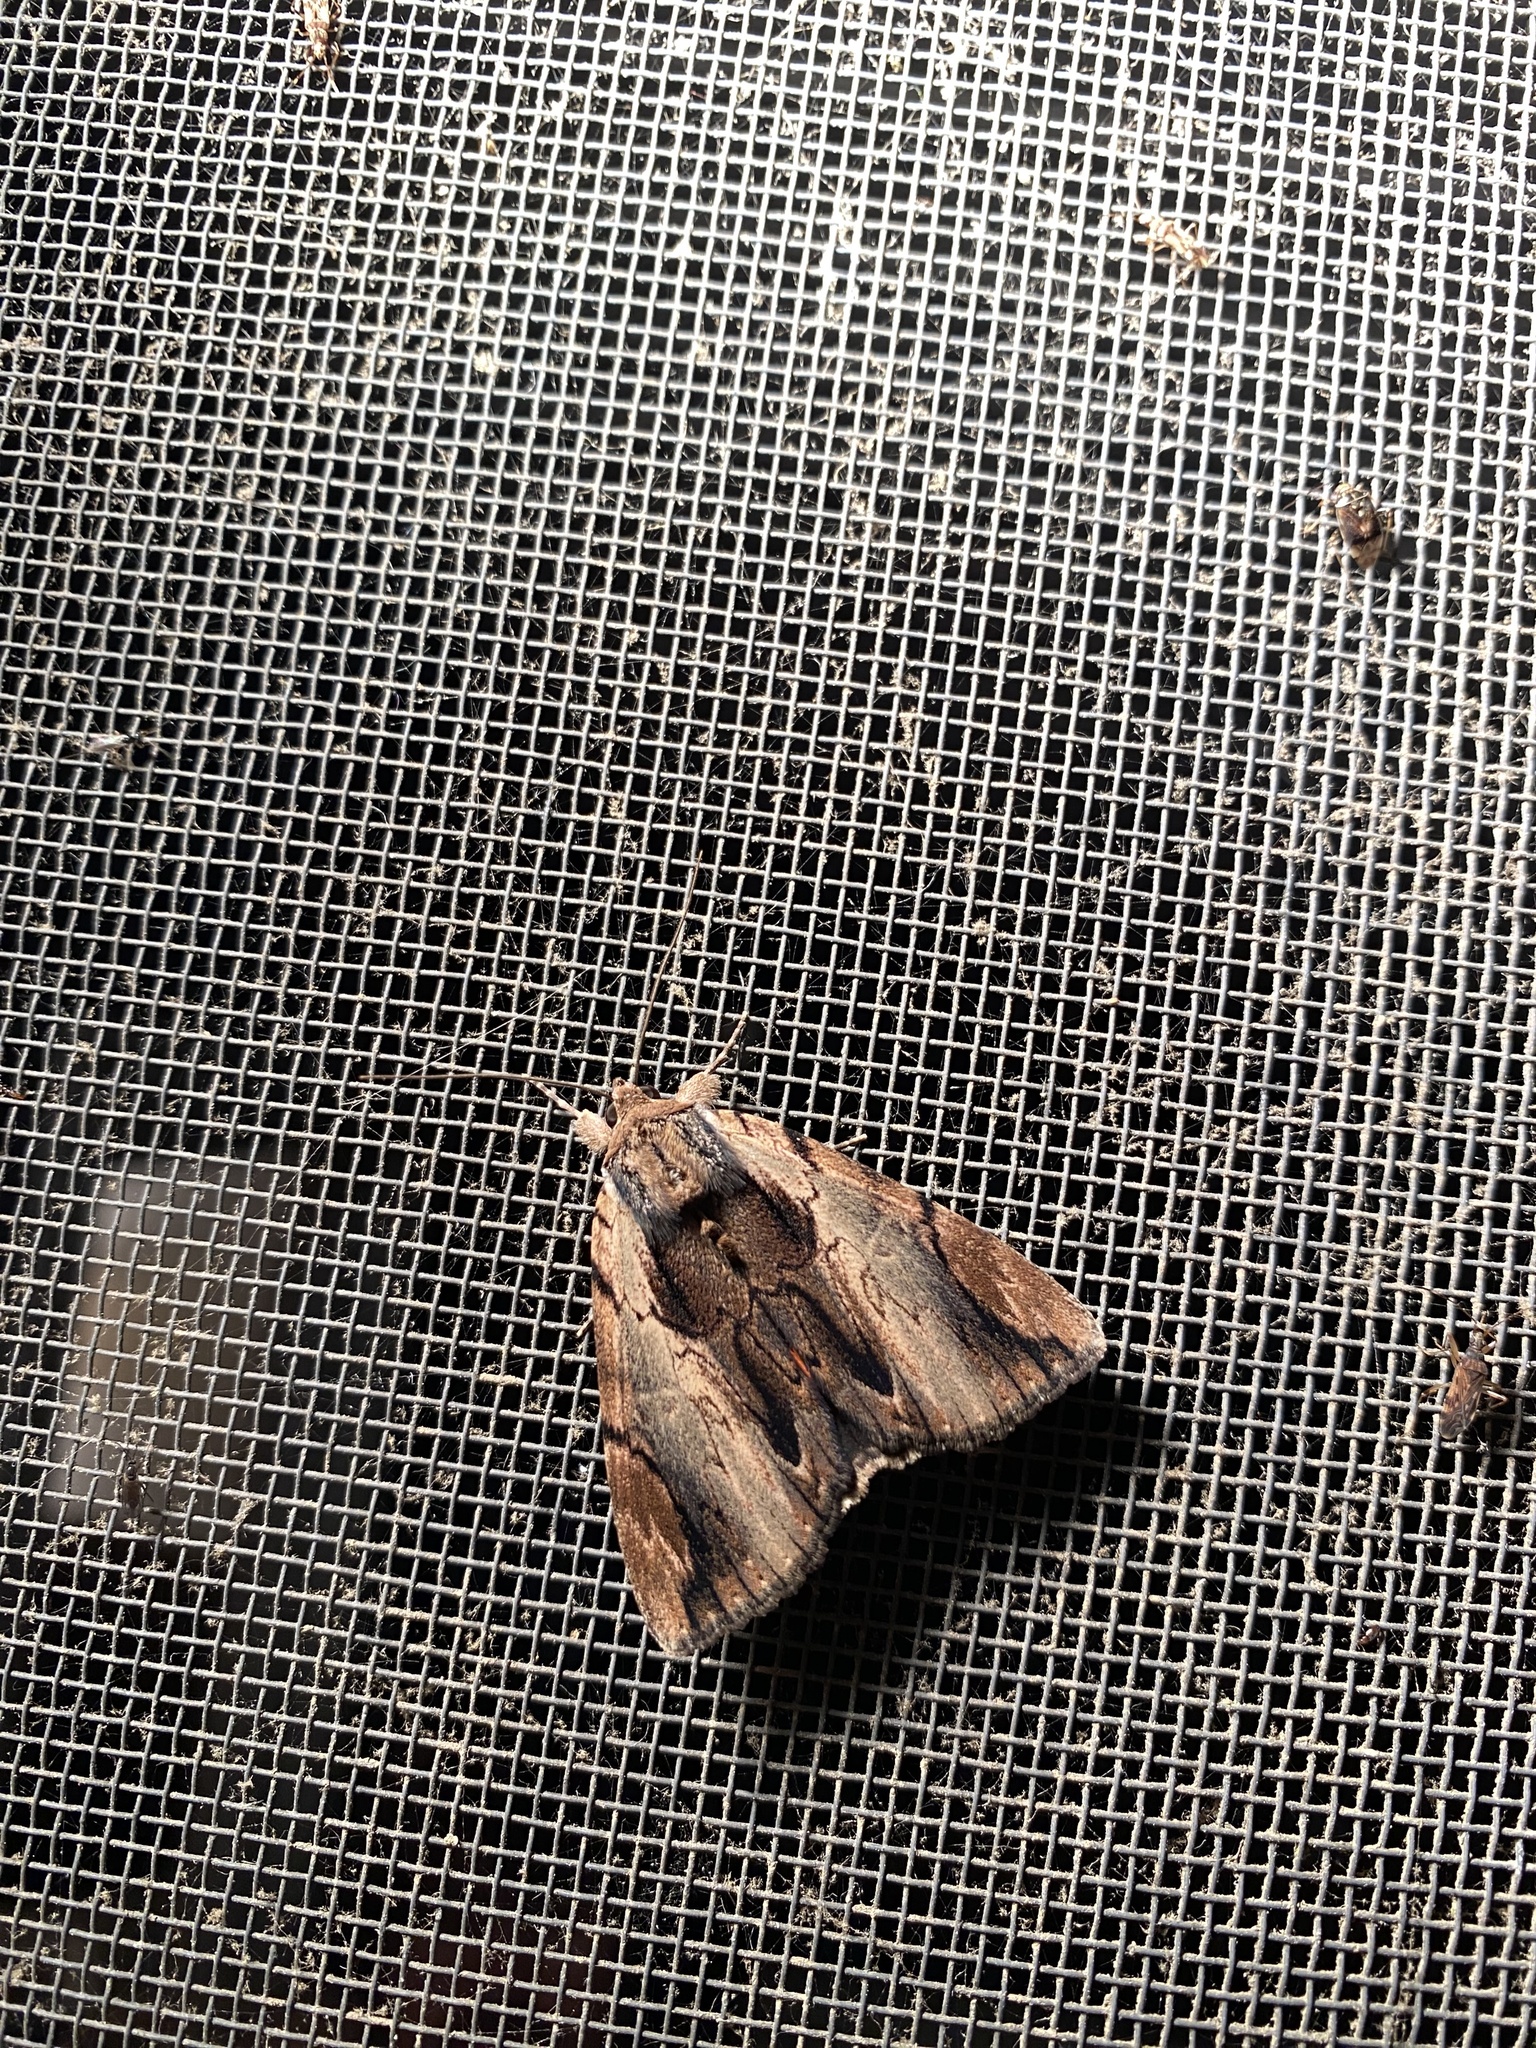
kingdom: Animalia
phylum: Arthropoda
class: Insecta
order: Lepidoptera
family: Erebidae
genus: Catocala
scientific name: Catocala ultronia
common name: Ultronia underwing
